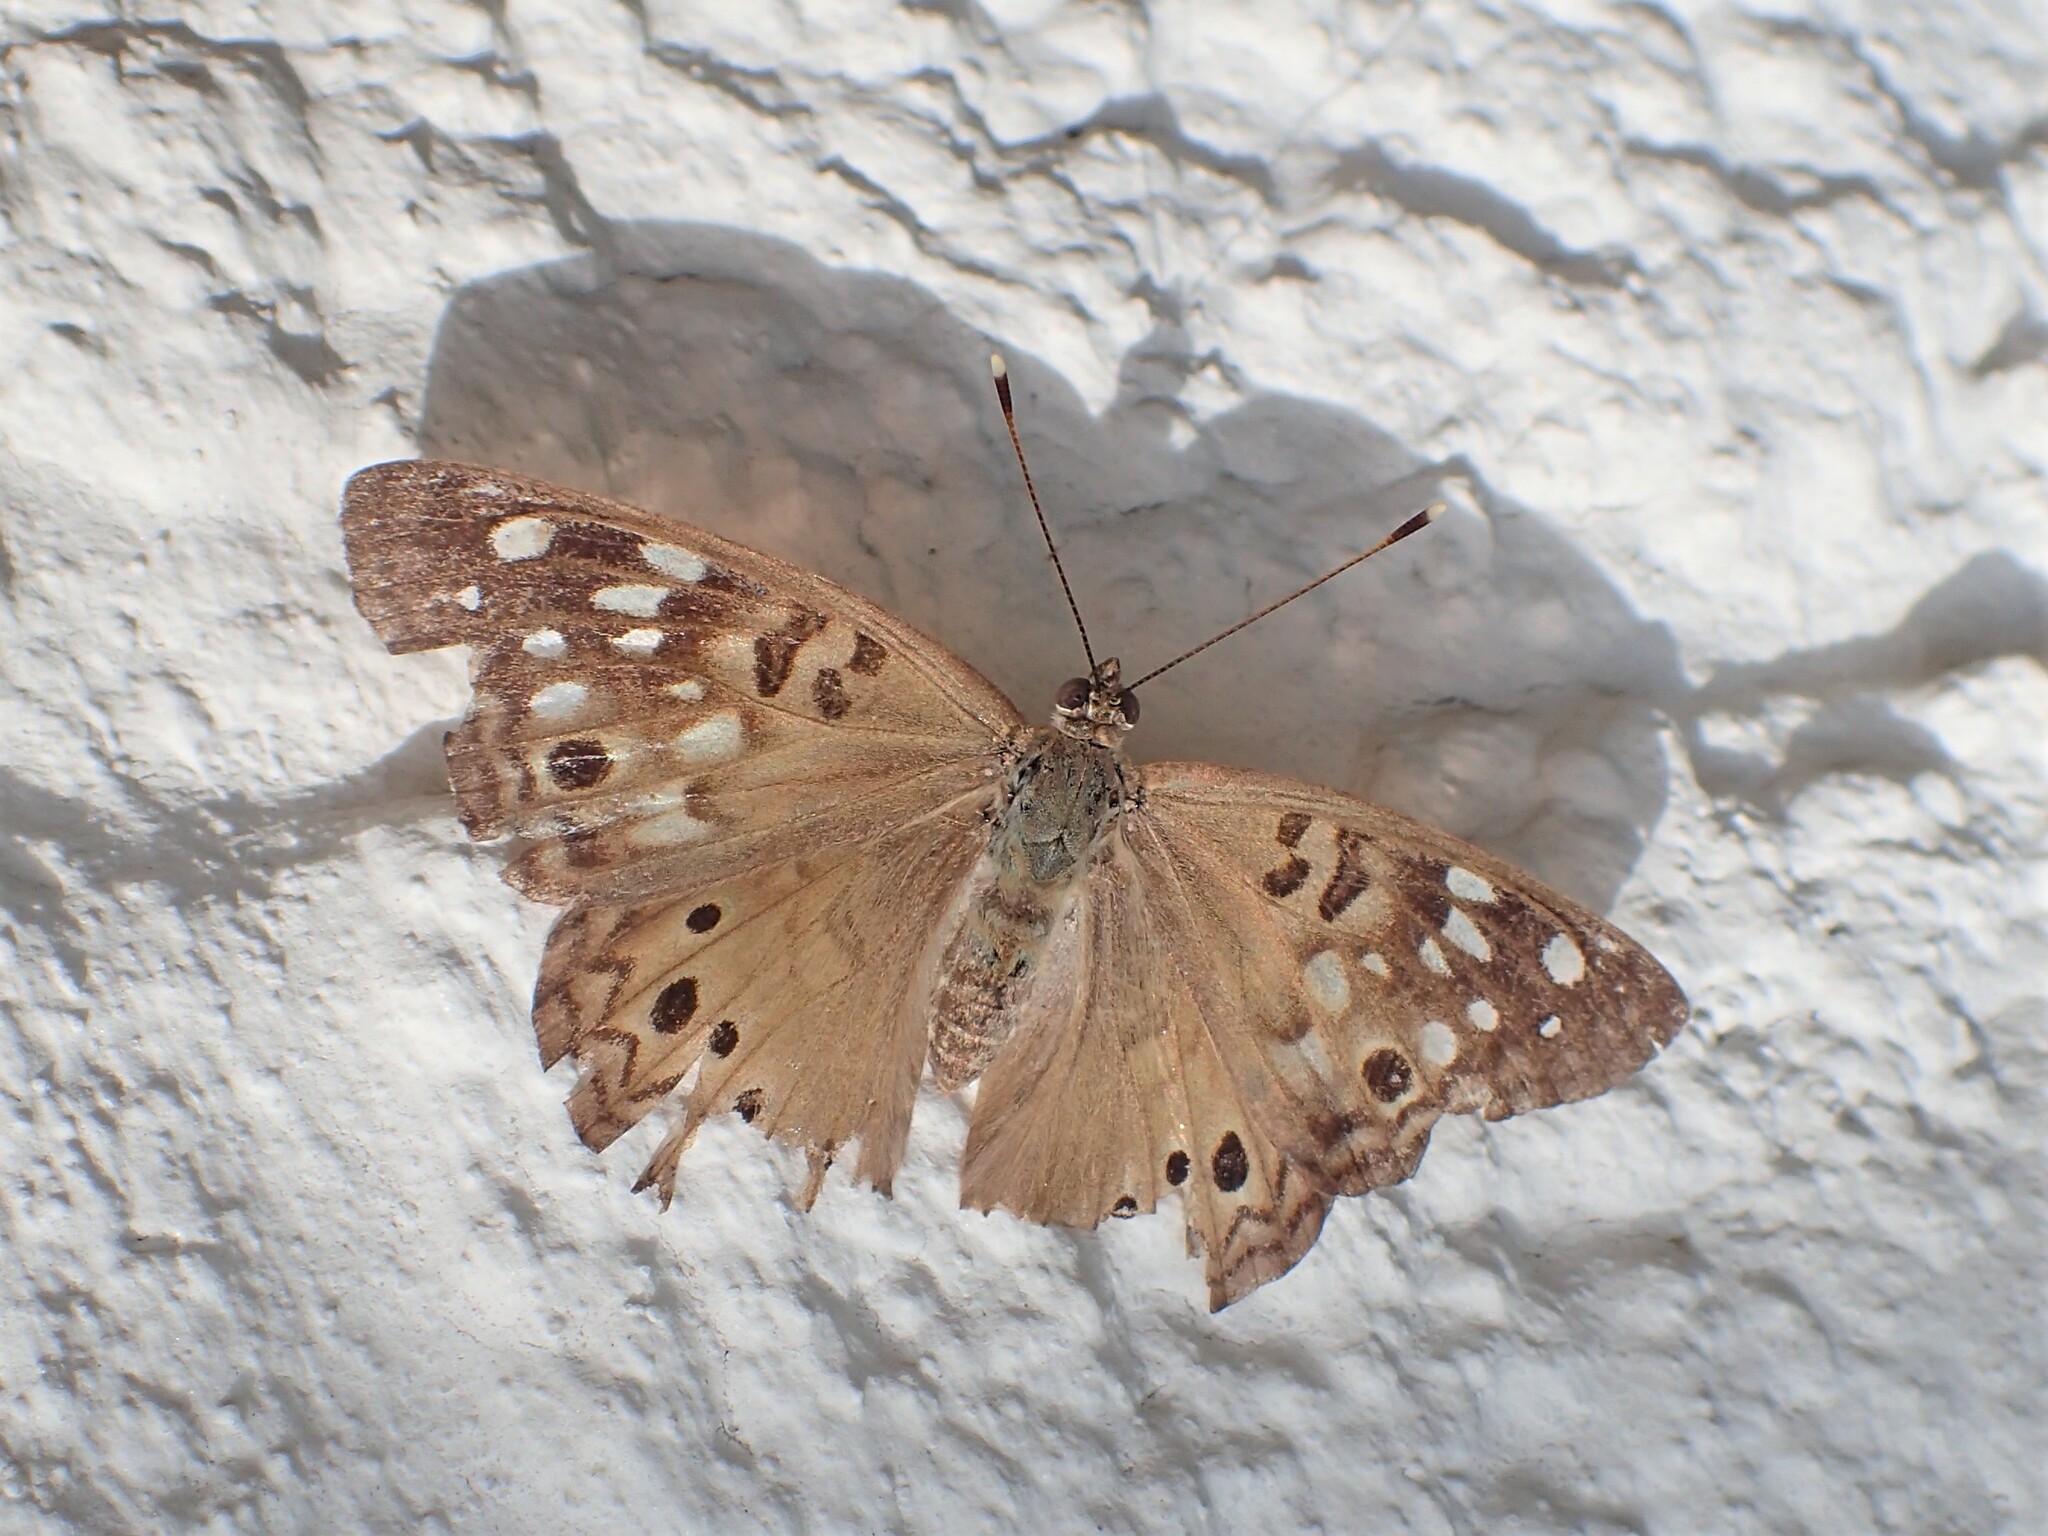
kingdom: Animalia
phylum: Arthropoda
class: Insecta
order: Lepidoptera
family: Nymphalidae
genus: Asterocampa
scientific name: Asterocampa celtis
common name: Hackberry emperor
